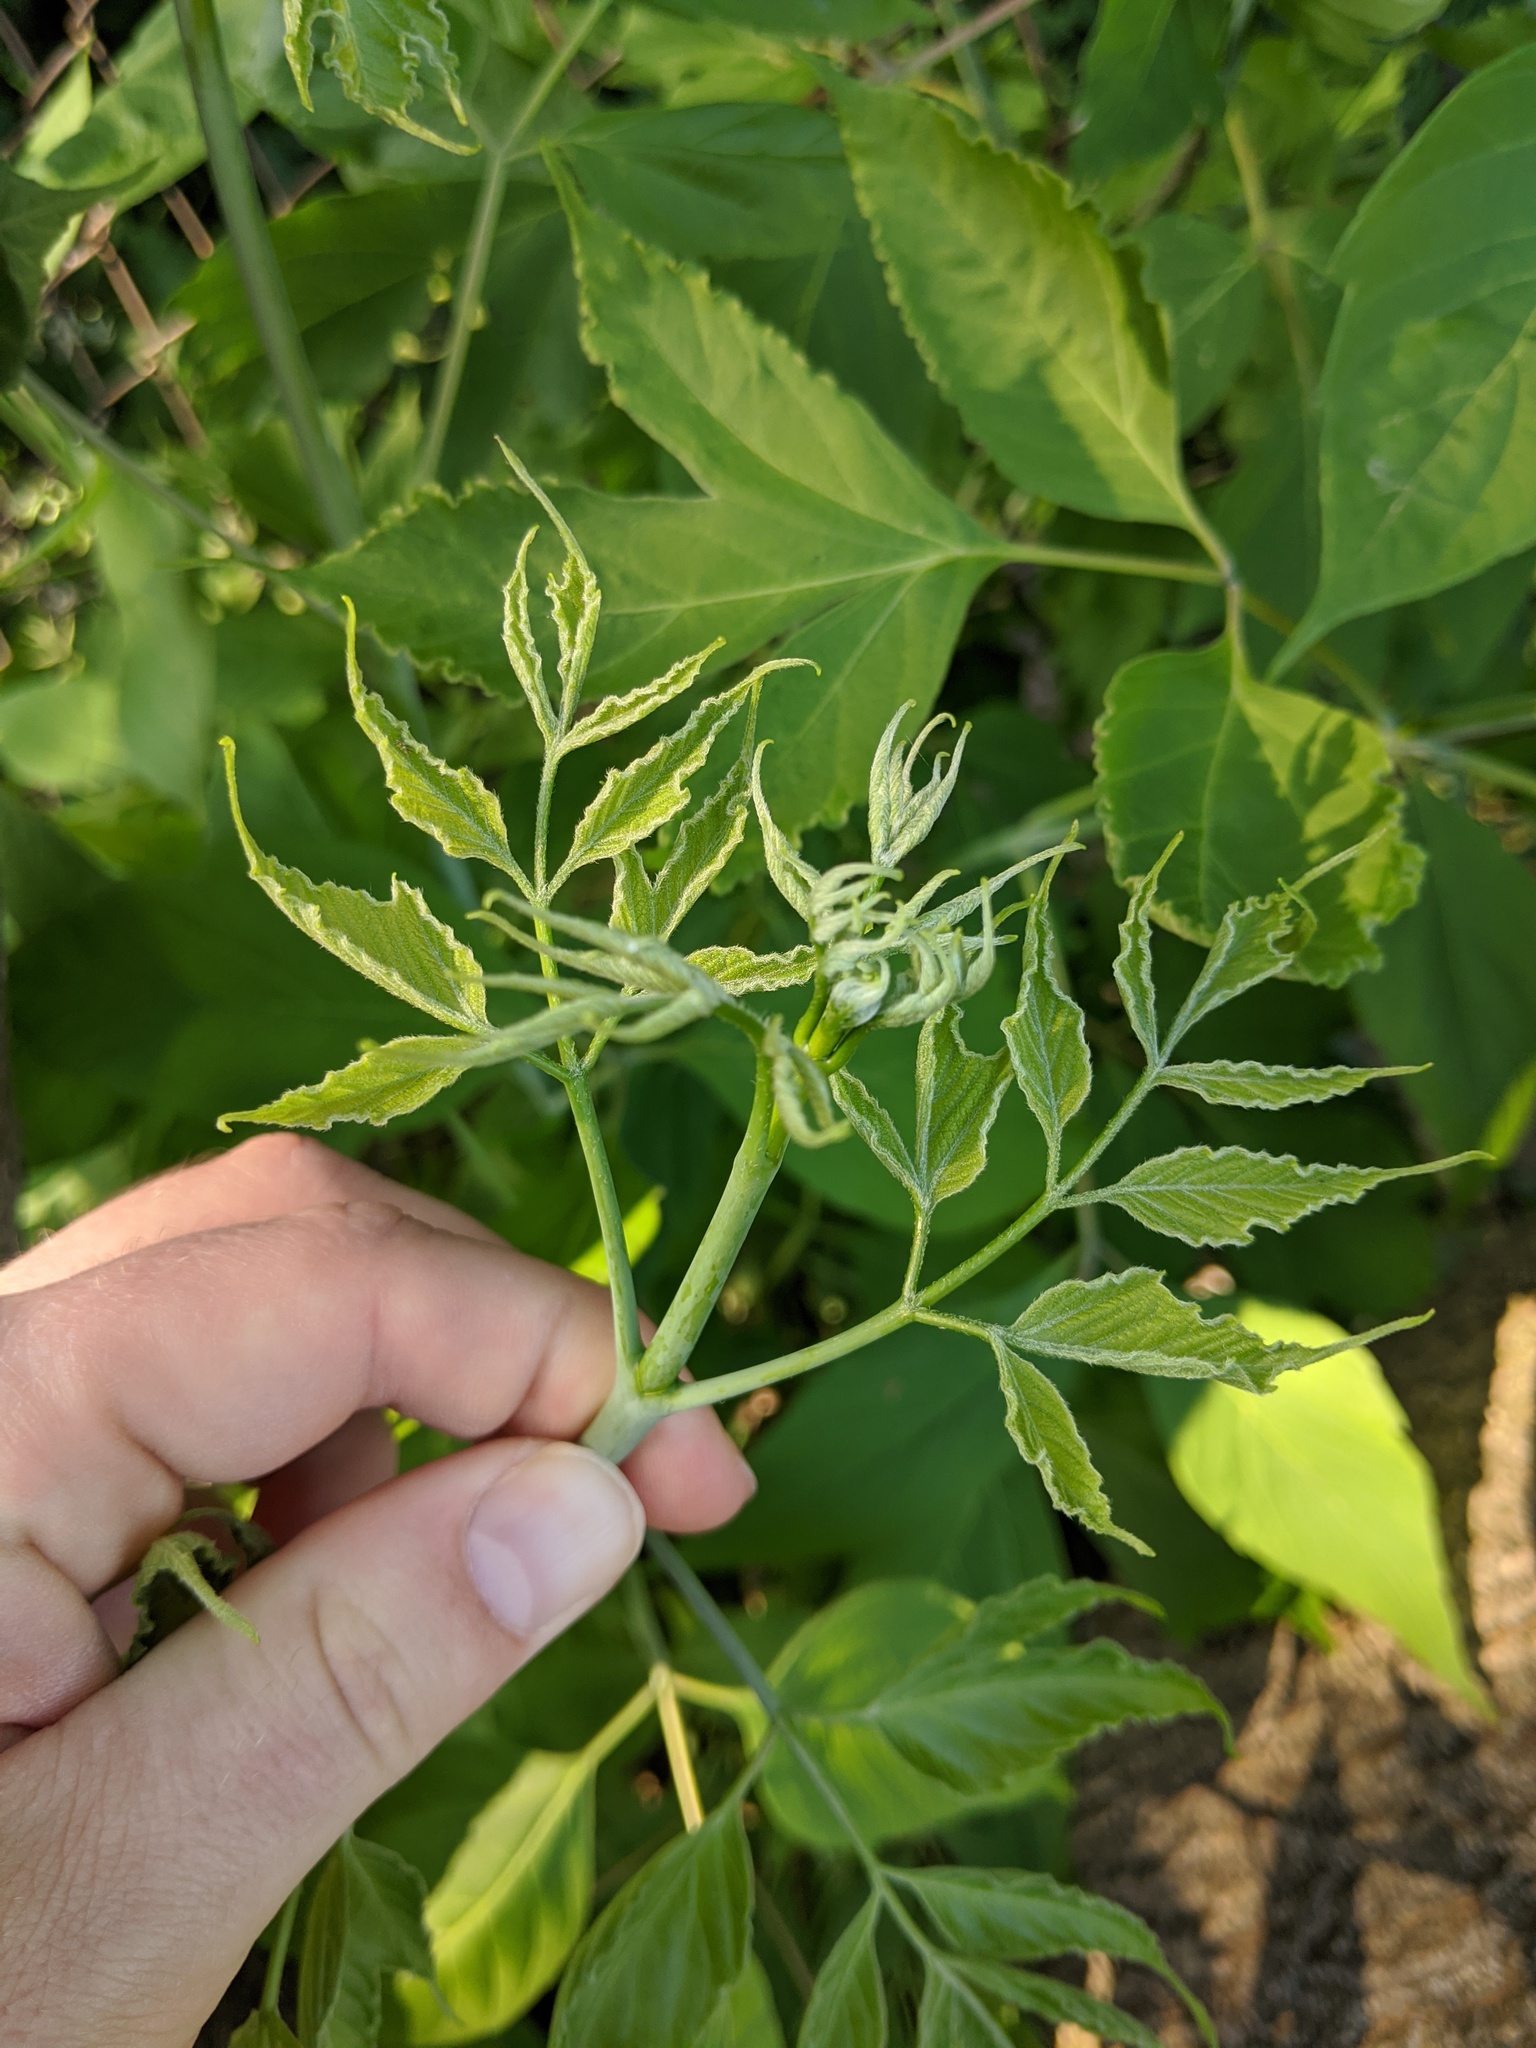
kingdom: Plantae
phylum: Tracheophyta
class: Magnoliopsida
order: Sapindales
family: Sapindaceae
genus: Acer
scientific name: Acer negundo
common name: Ashleaf maple
